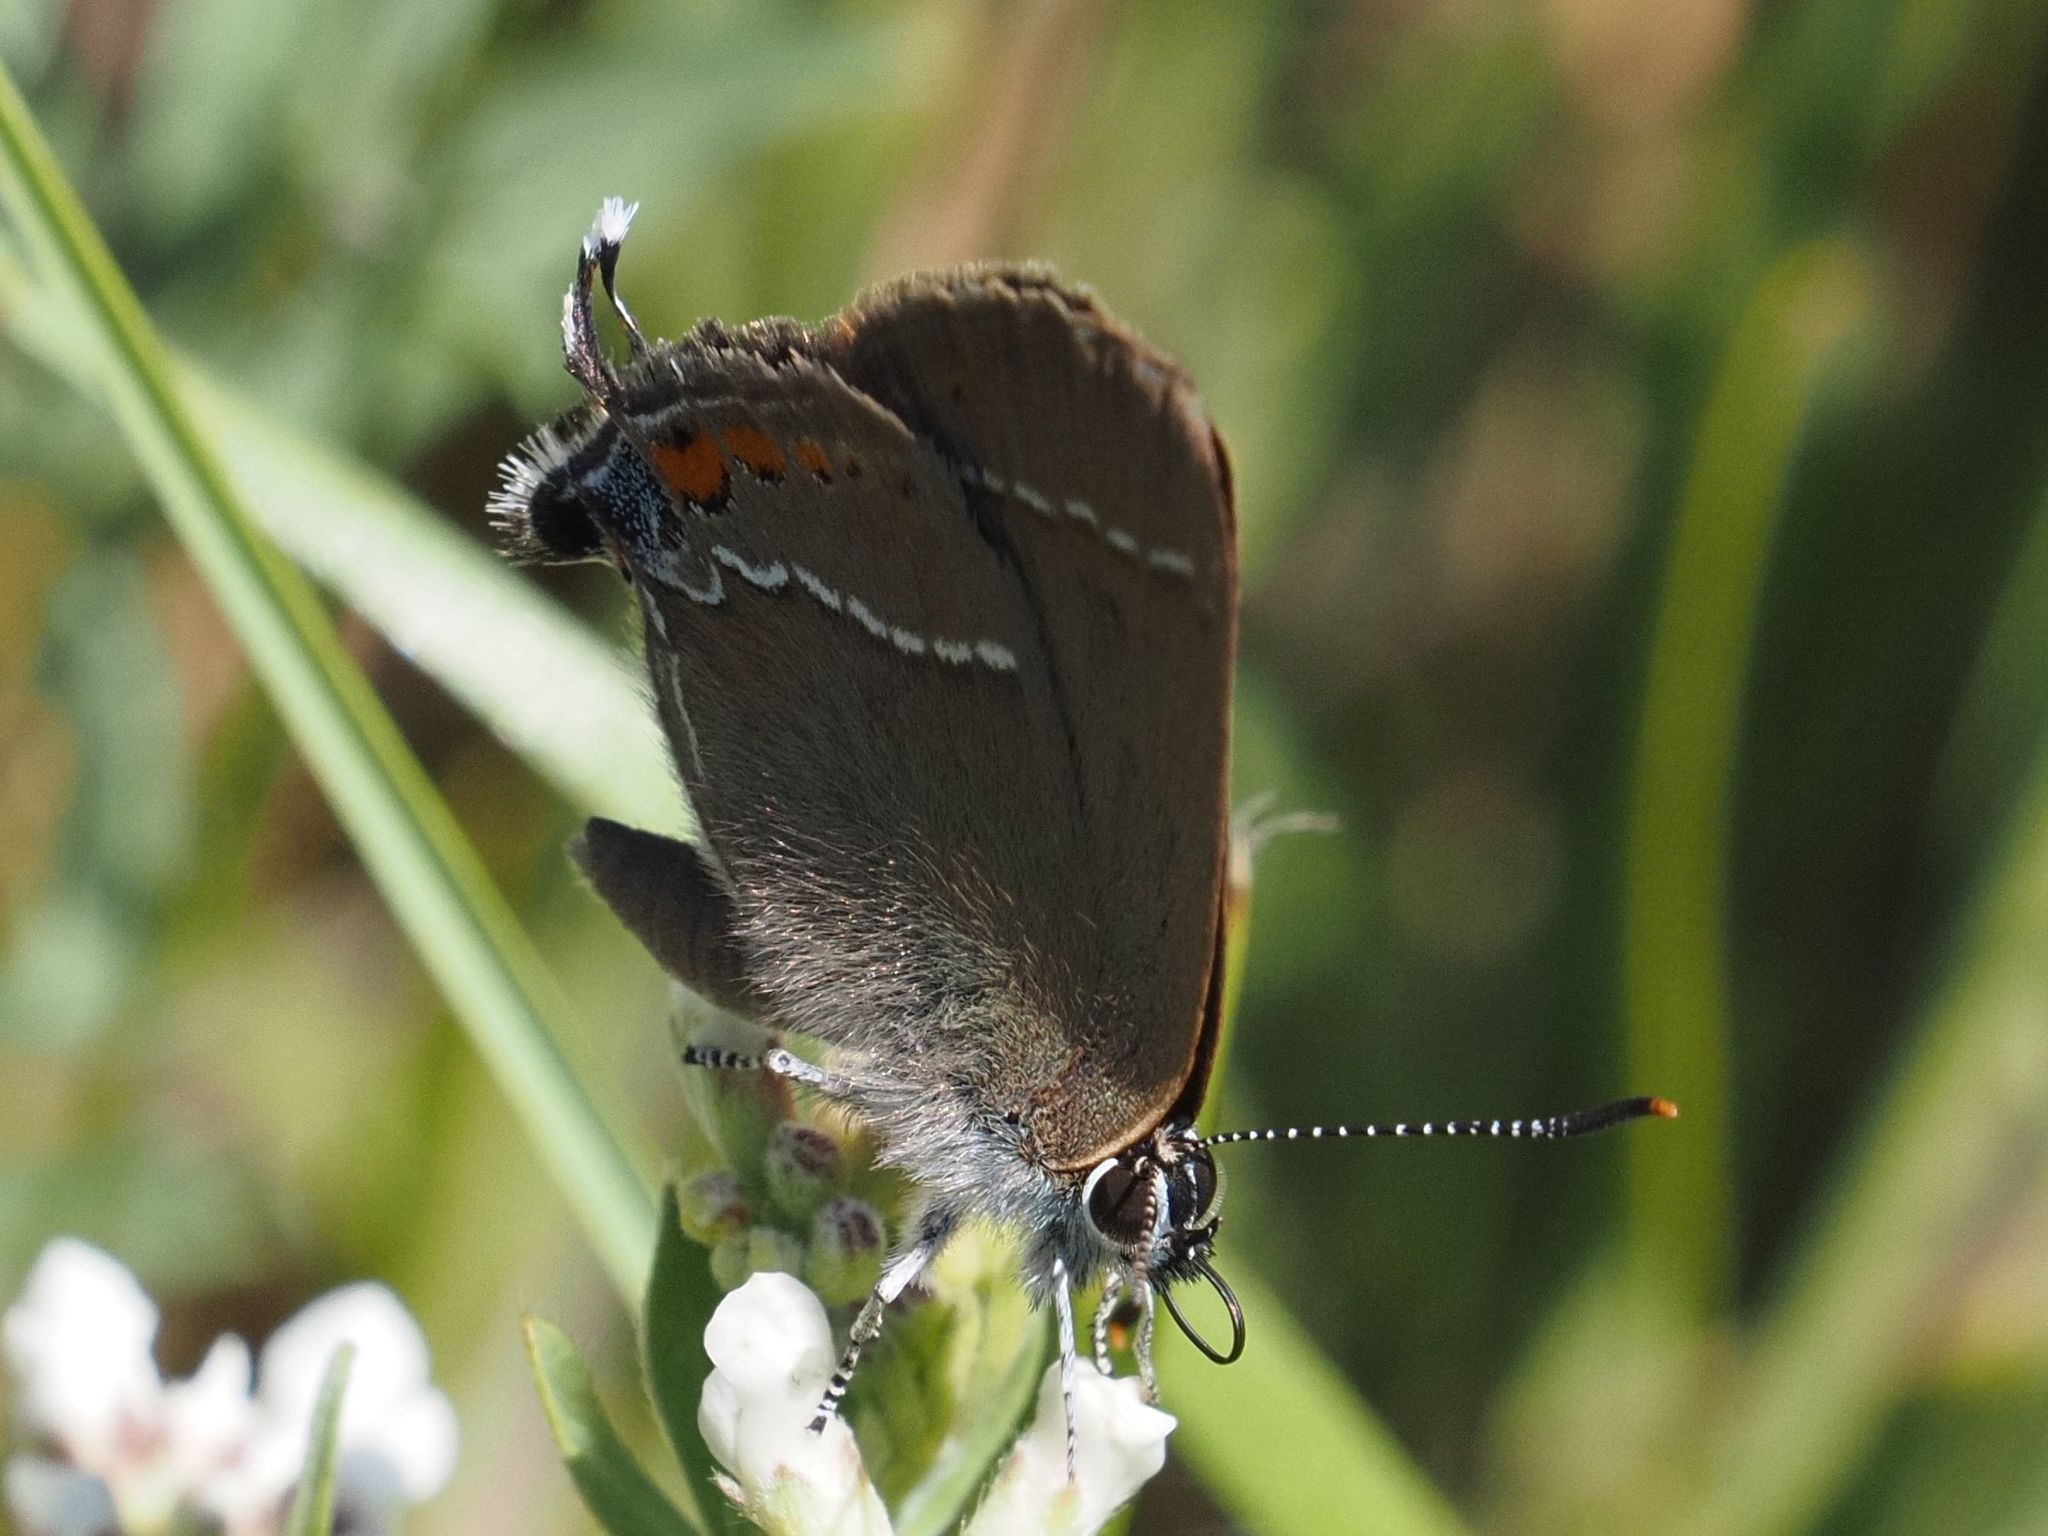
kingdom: Animalia
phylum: Arthropoda
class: Insecta
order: Lepidoptera
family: Lycaenidae
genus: Tuttiola
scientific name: Tuttiola spini
